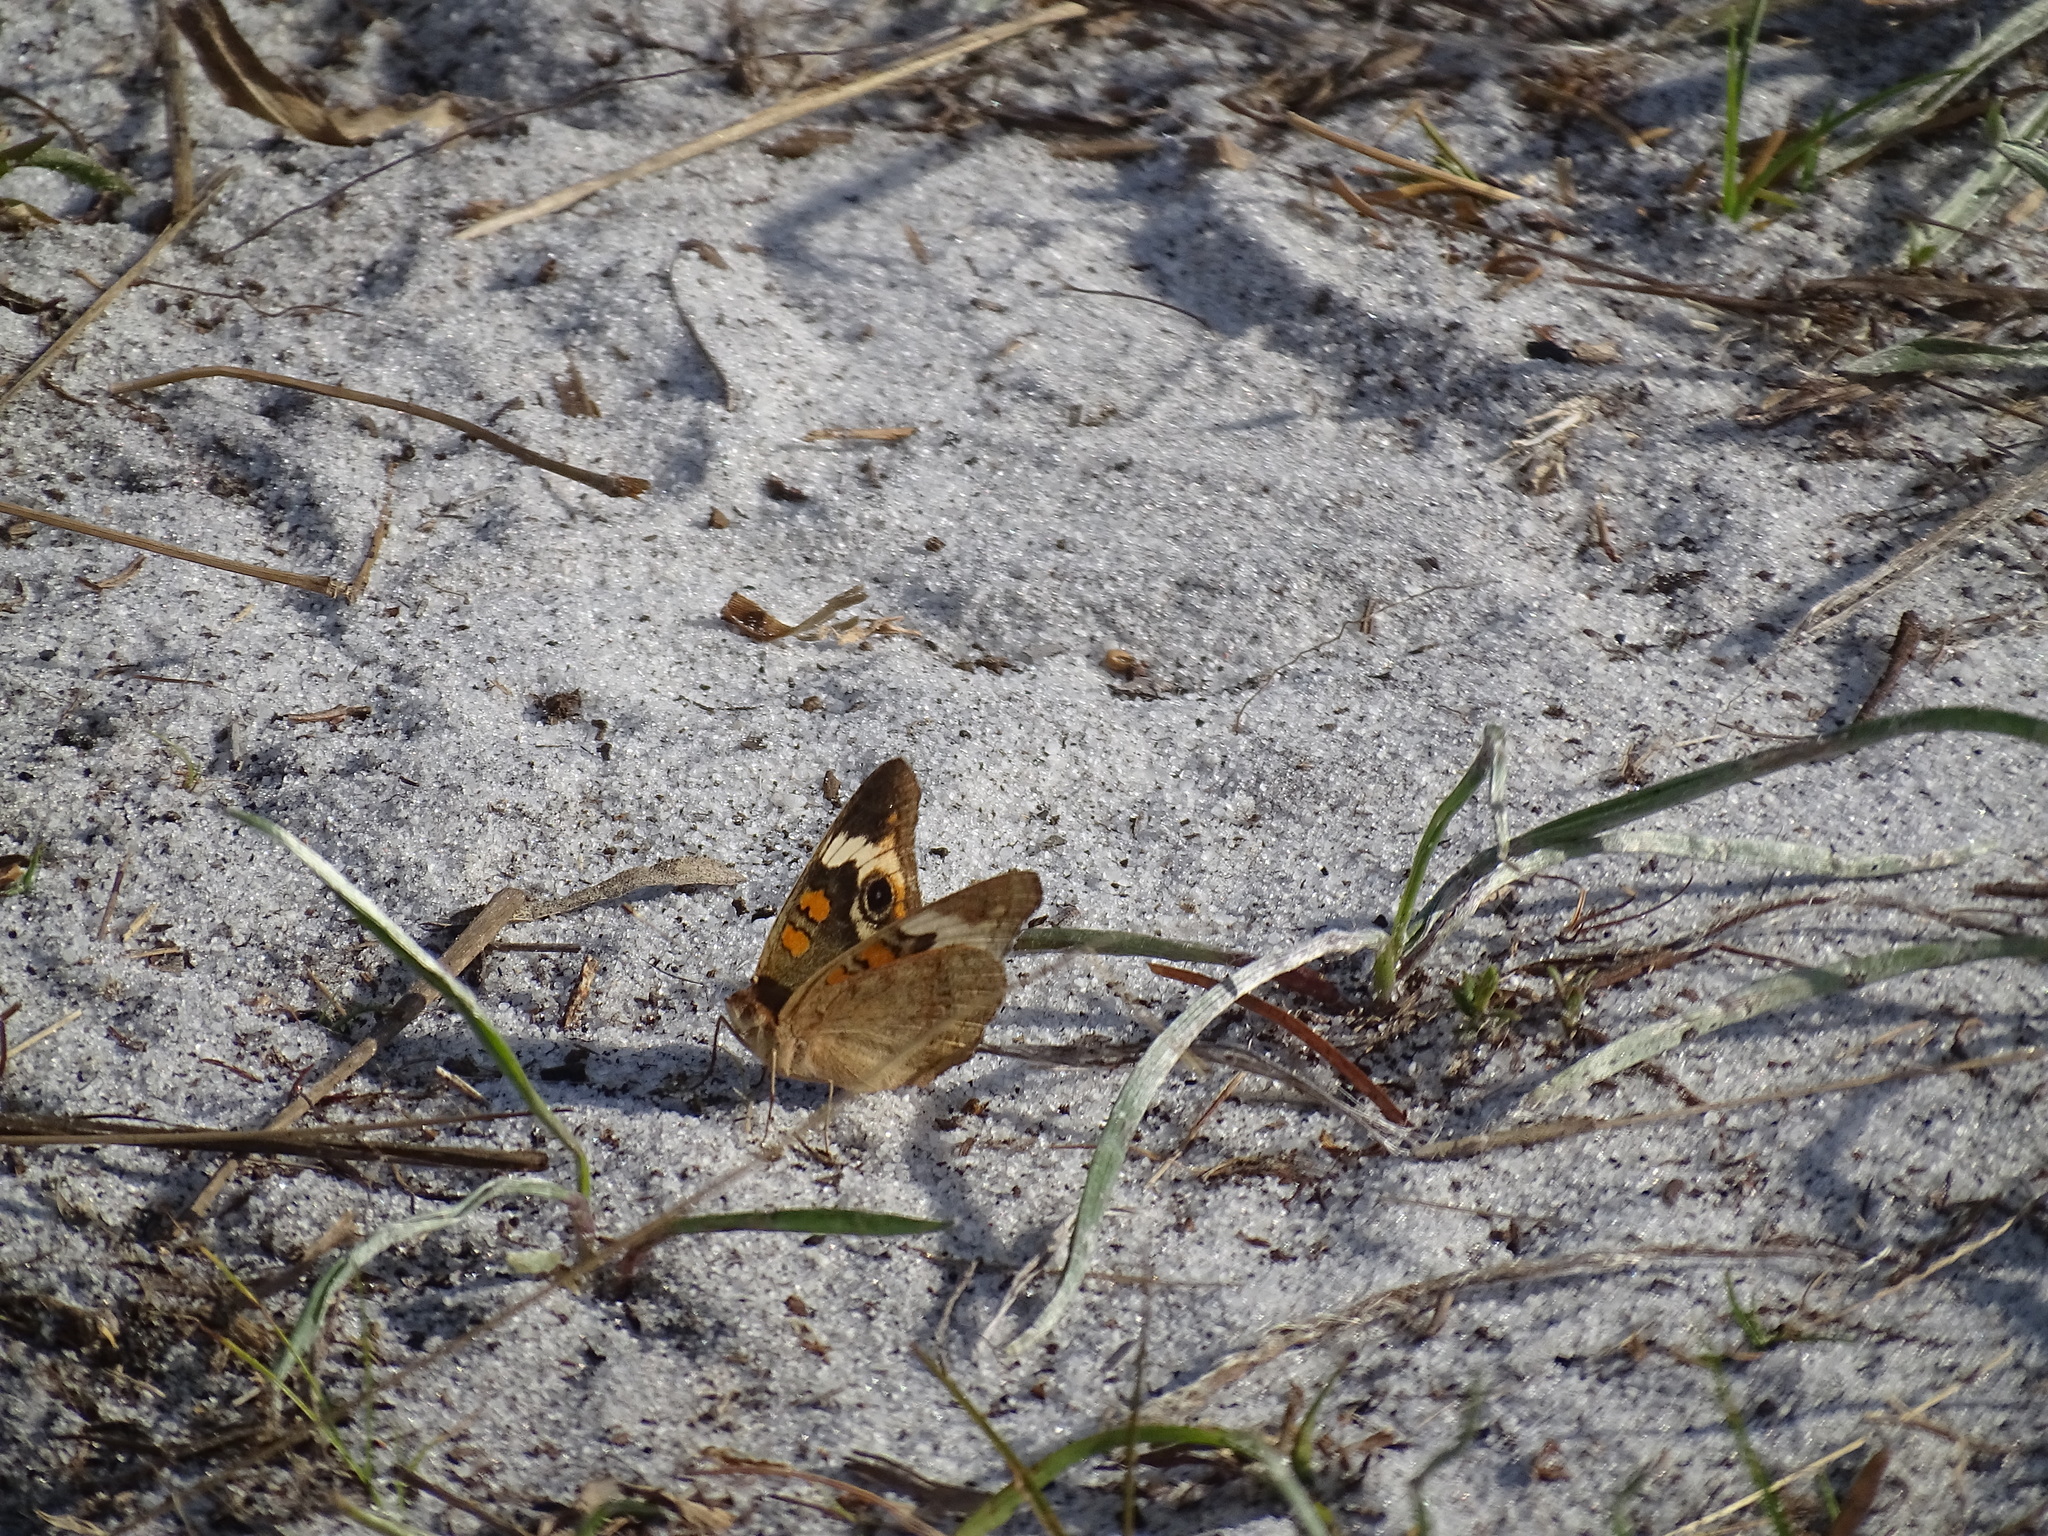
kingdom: Animalia
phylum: Arthropoda
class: Insecta
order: Lepidoptera
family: Nymphalidae
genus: Junonia
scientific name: Junonia coenia
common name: Common buckeye
